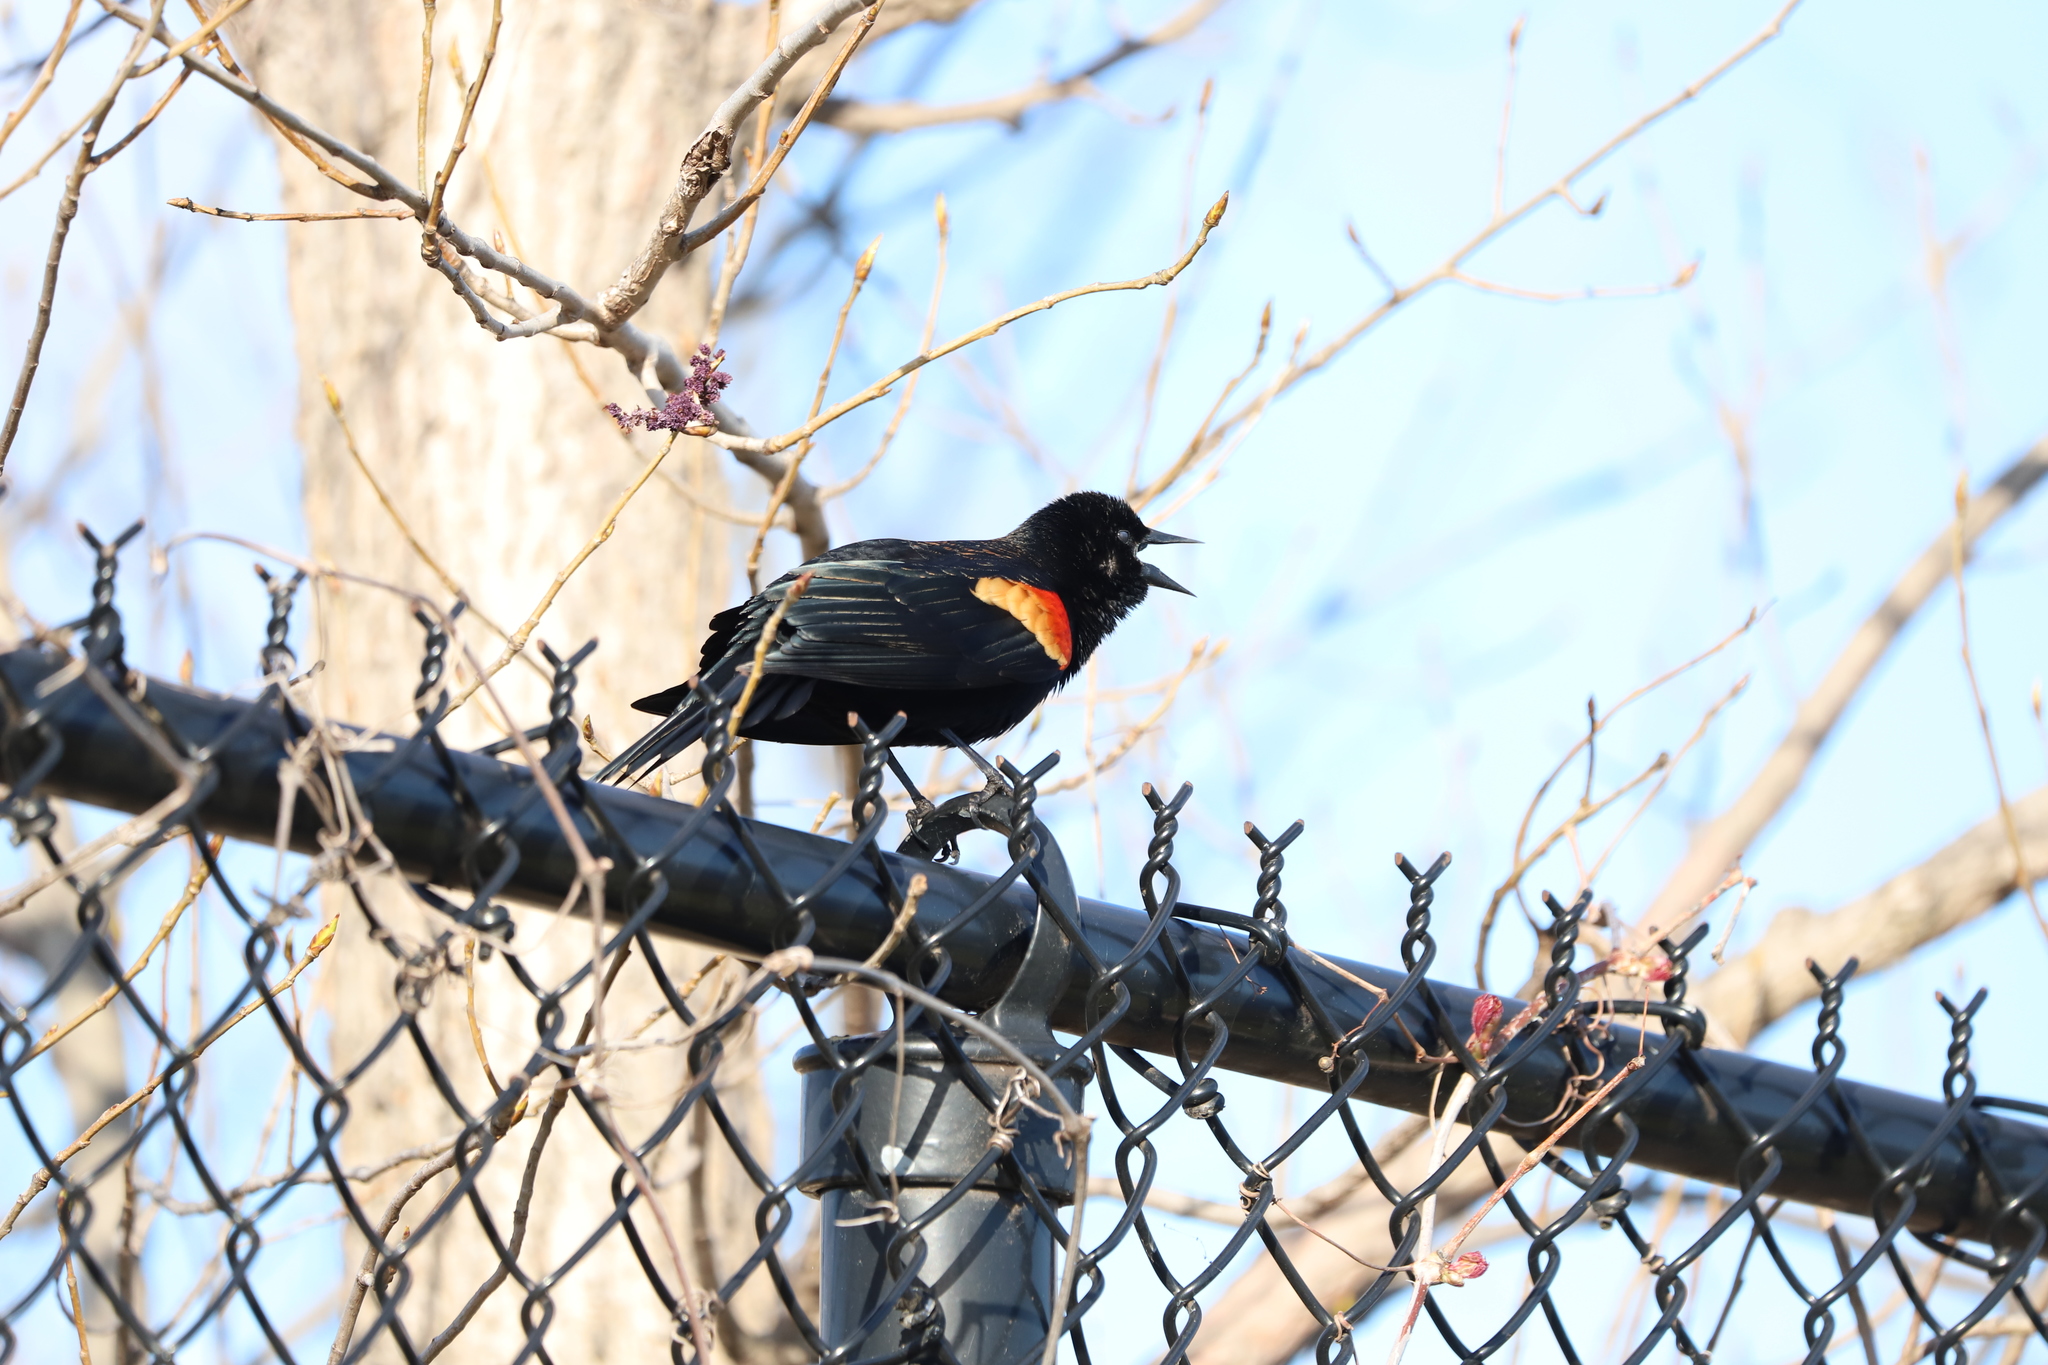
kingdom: Animalia
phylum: Chordata
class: Aves
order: Passeriformes
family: Icteridae
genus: Agelaius
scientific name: Agelaius phoeniceus
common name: Red-winged blackbird
